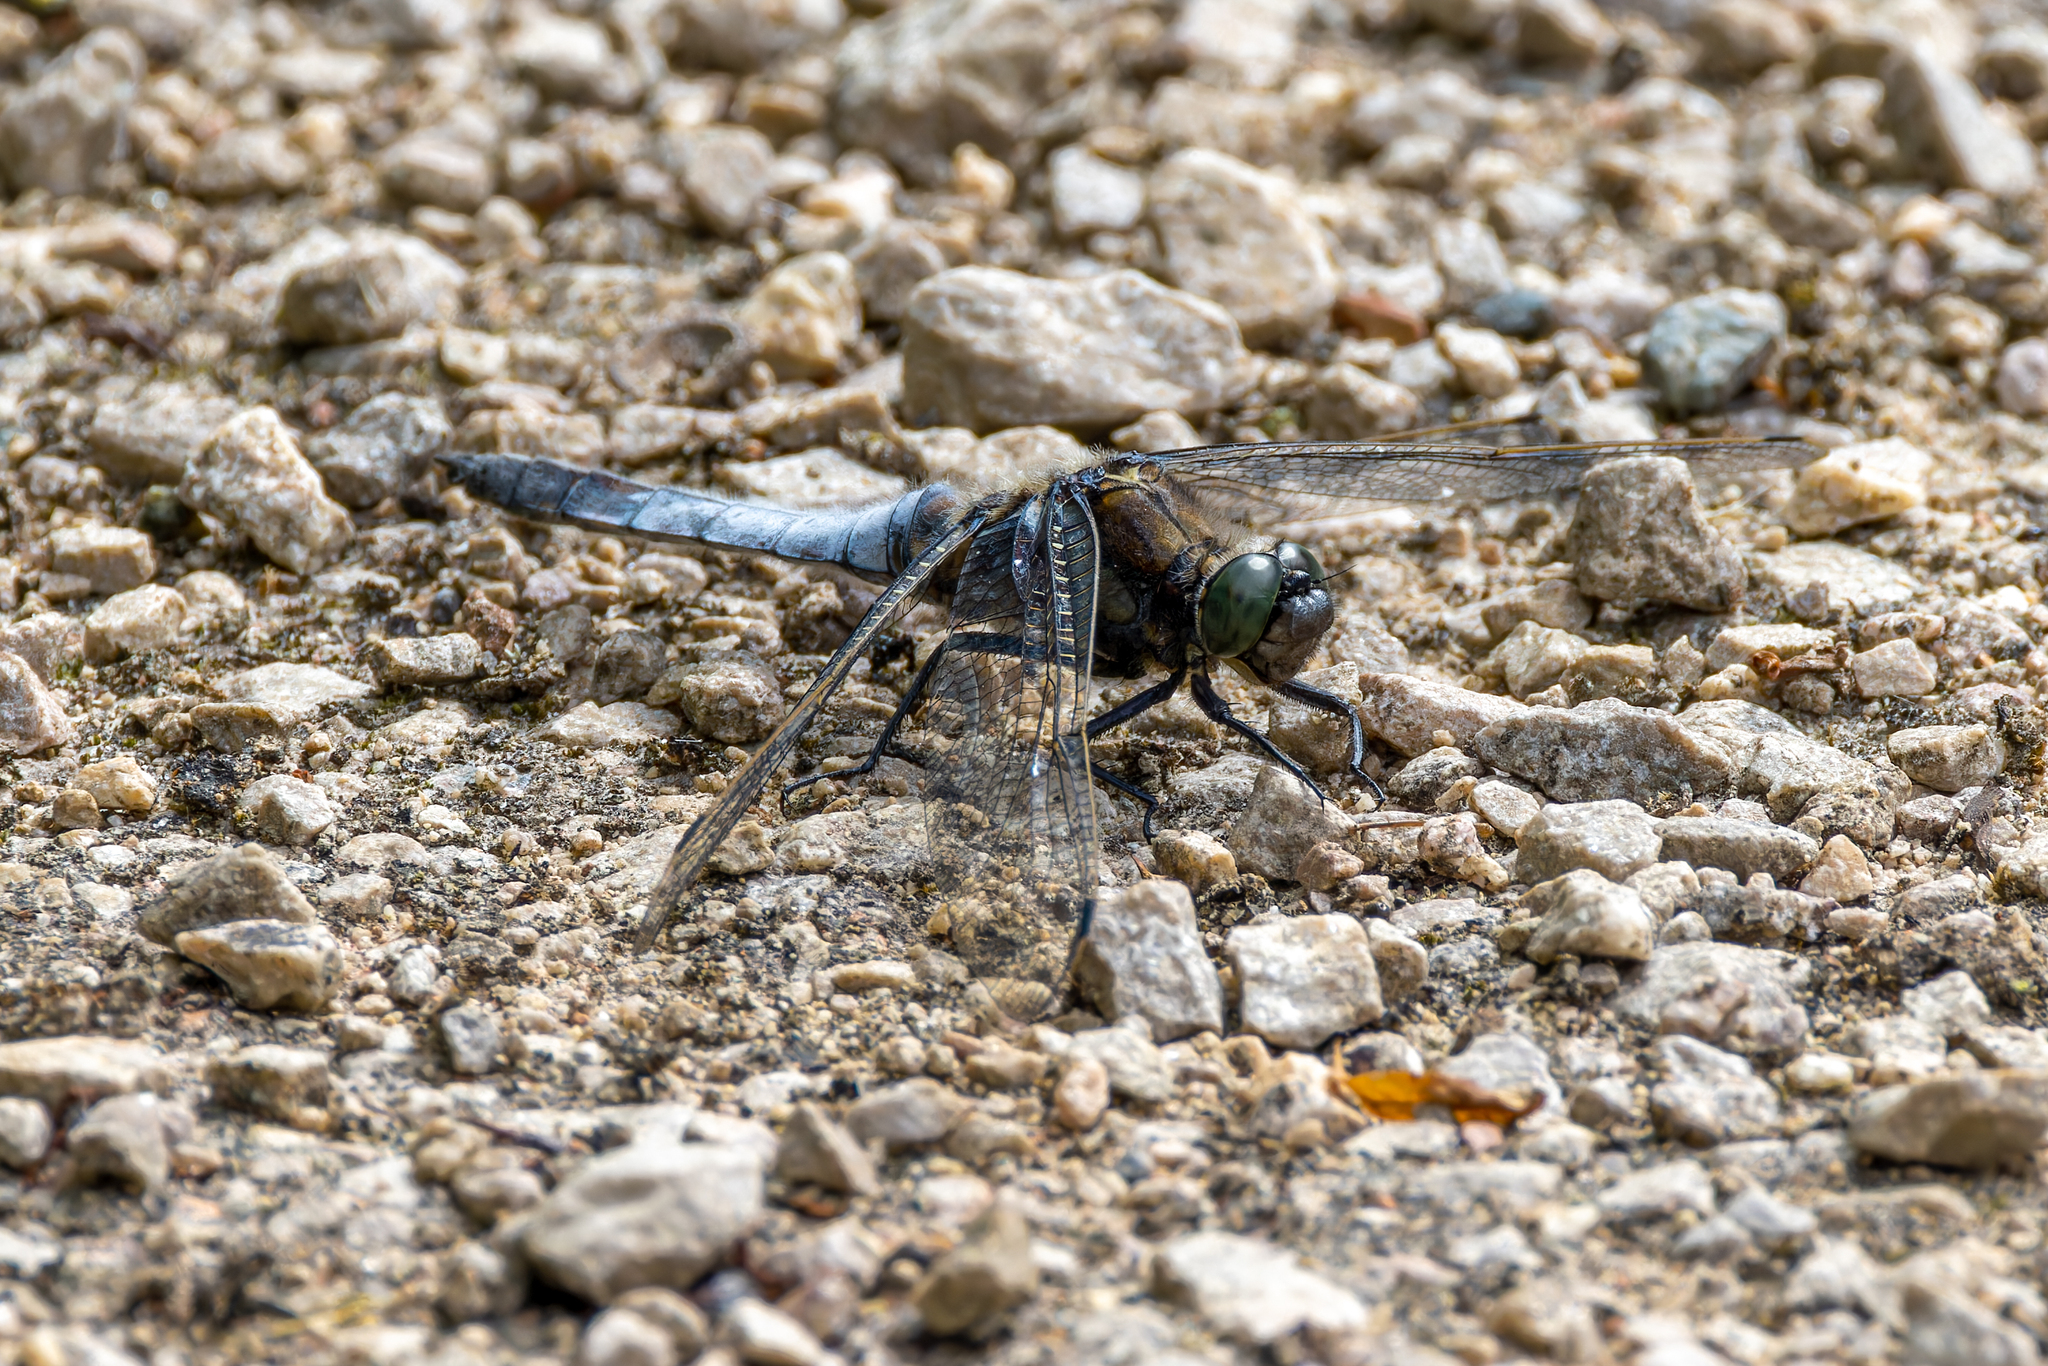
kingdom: Animalia
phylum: Arthropoda
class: Insecta
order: Odonata
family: Libellulidae
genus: Orthetrum
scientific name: Orthetrum cancellatum
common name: Black-tailed skimmer
